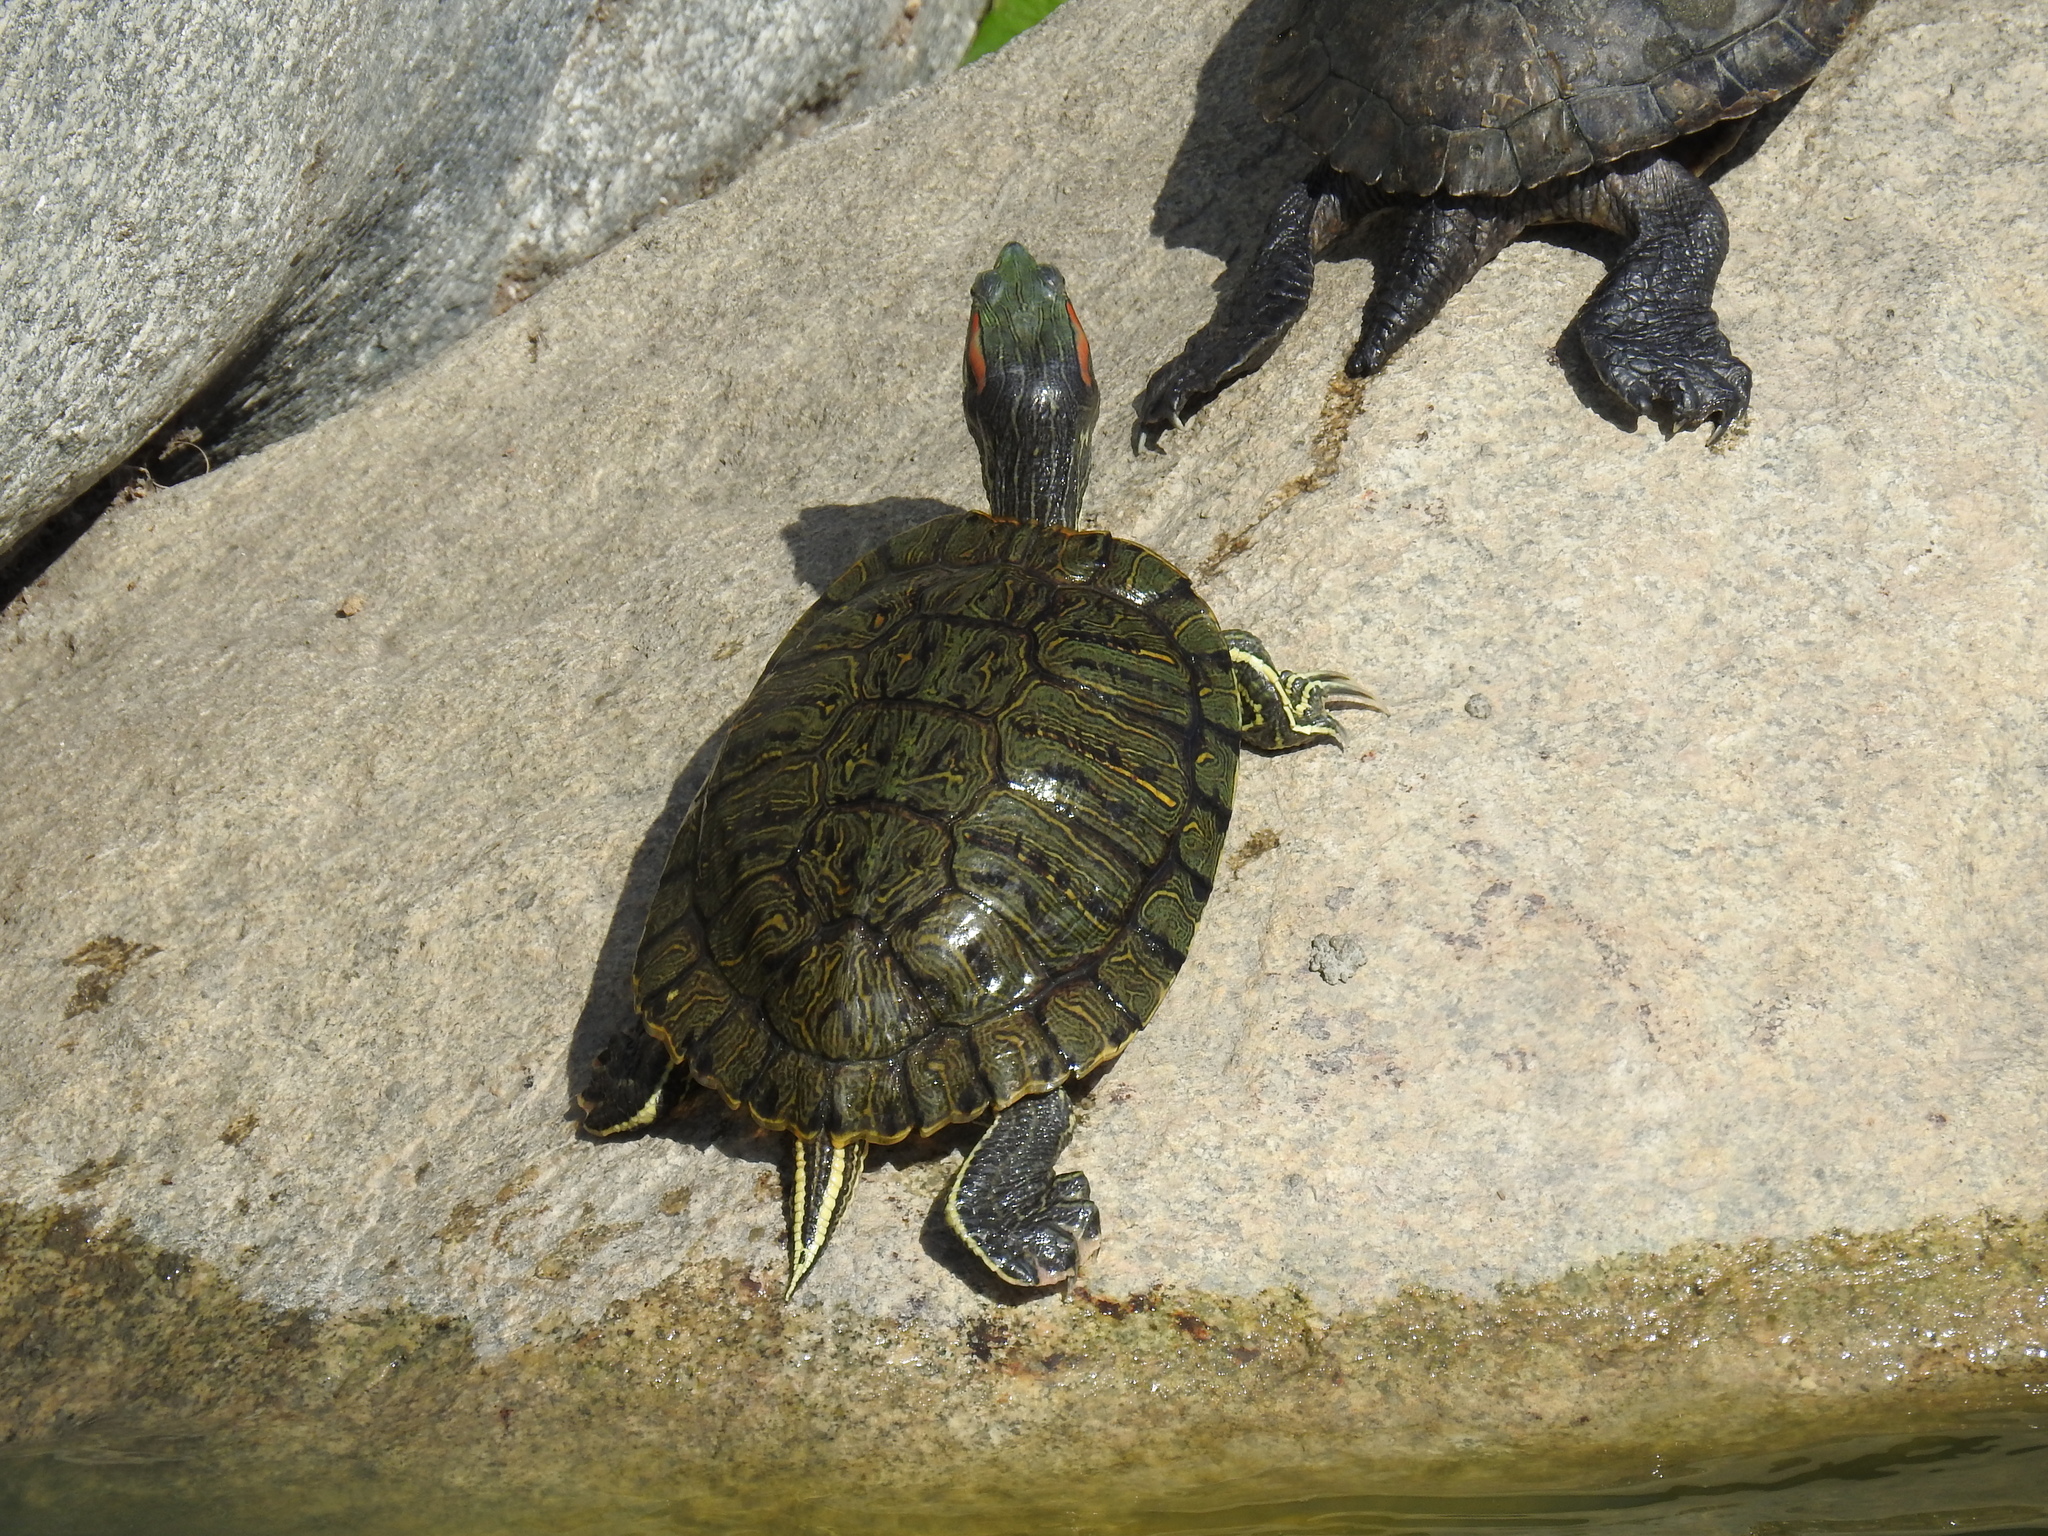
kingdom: Animalia
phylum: Chordata
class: Testudines
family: Emydidae
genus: Trachemys
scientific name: Trachemys scripta
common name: Slider
